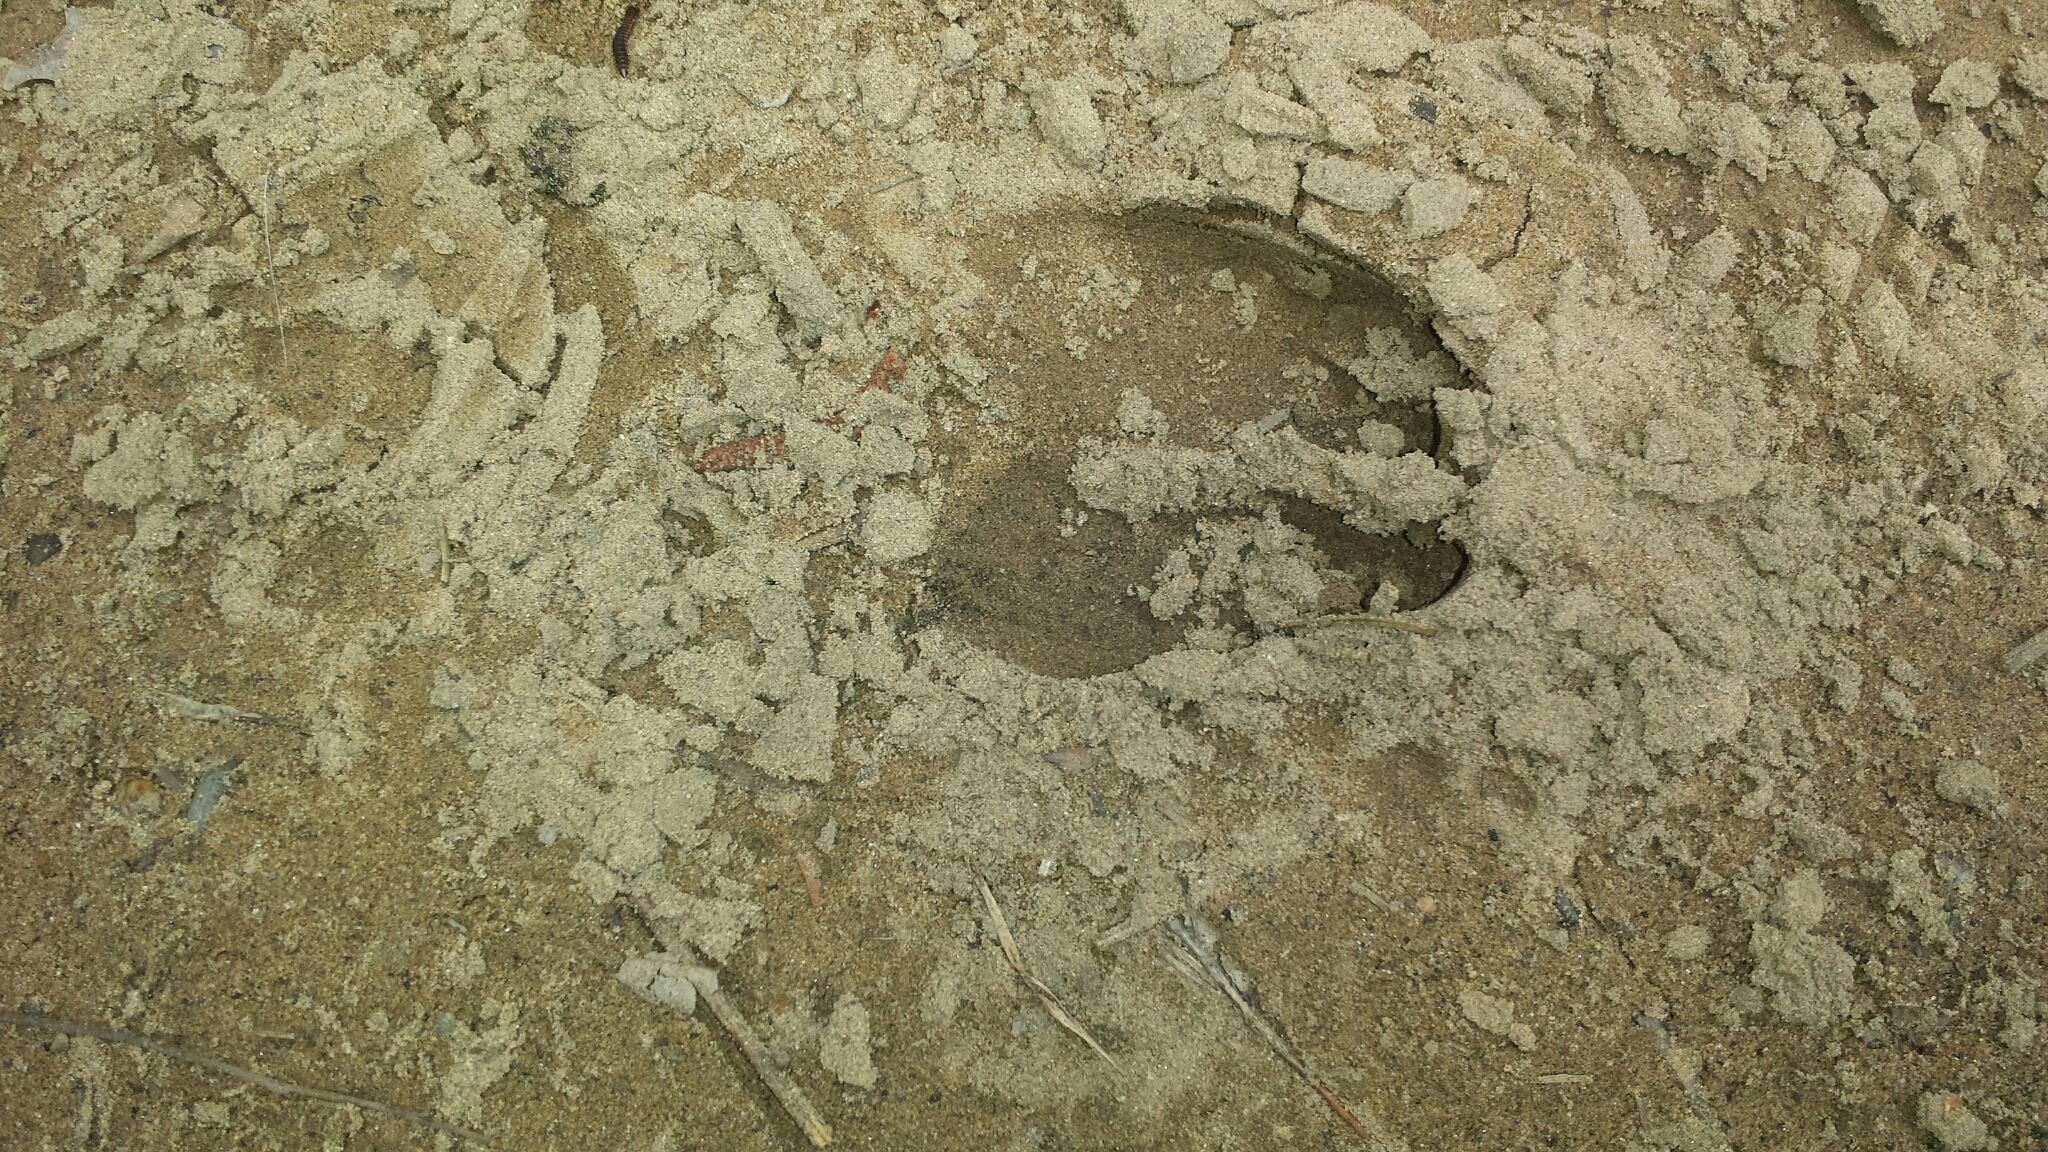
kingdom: Animalia
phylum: Chordata
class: Mammalia
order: Artiodactyla
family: Cervidae
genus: Odocoileus
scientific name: Odocoileus virginianus
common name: White-tailed deer
